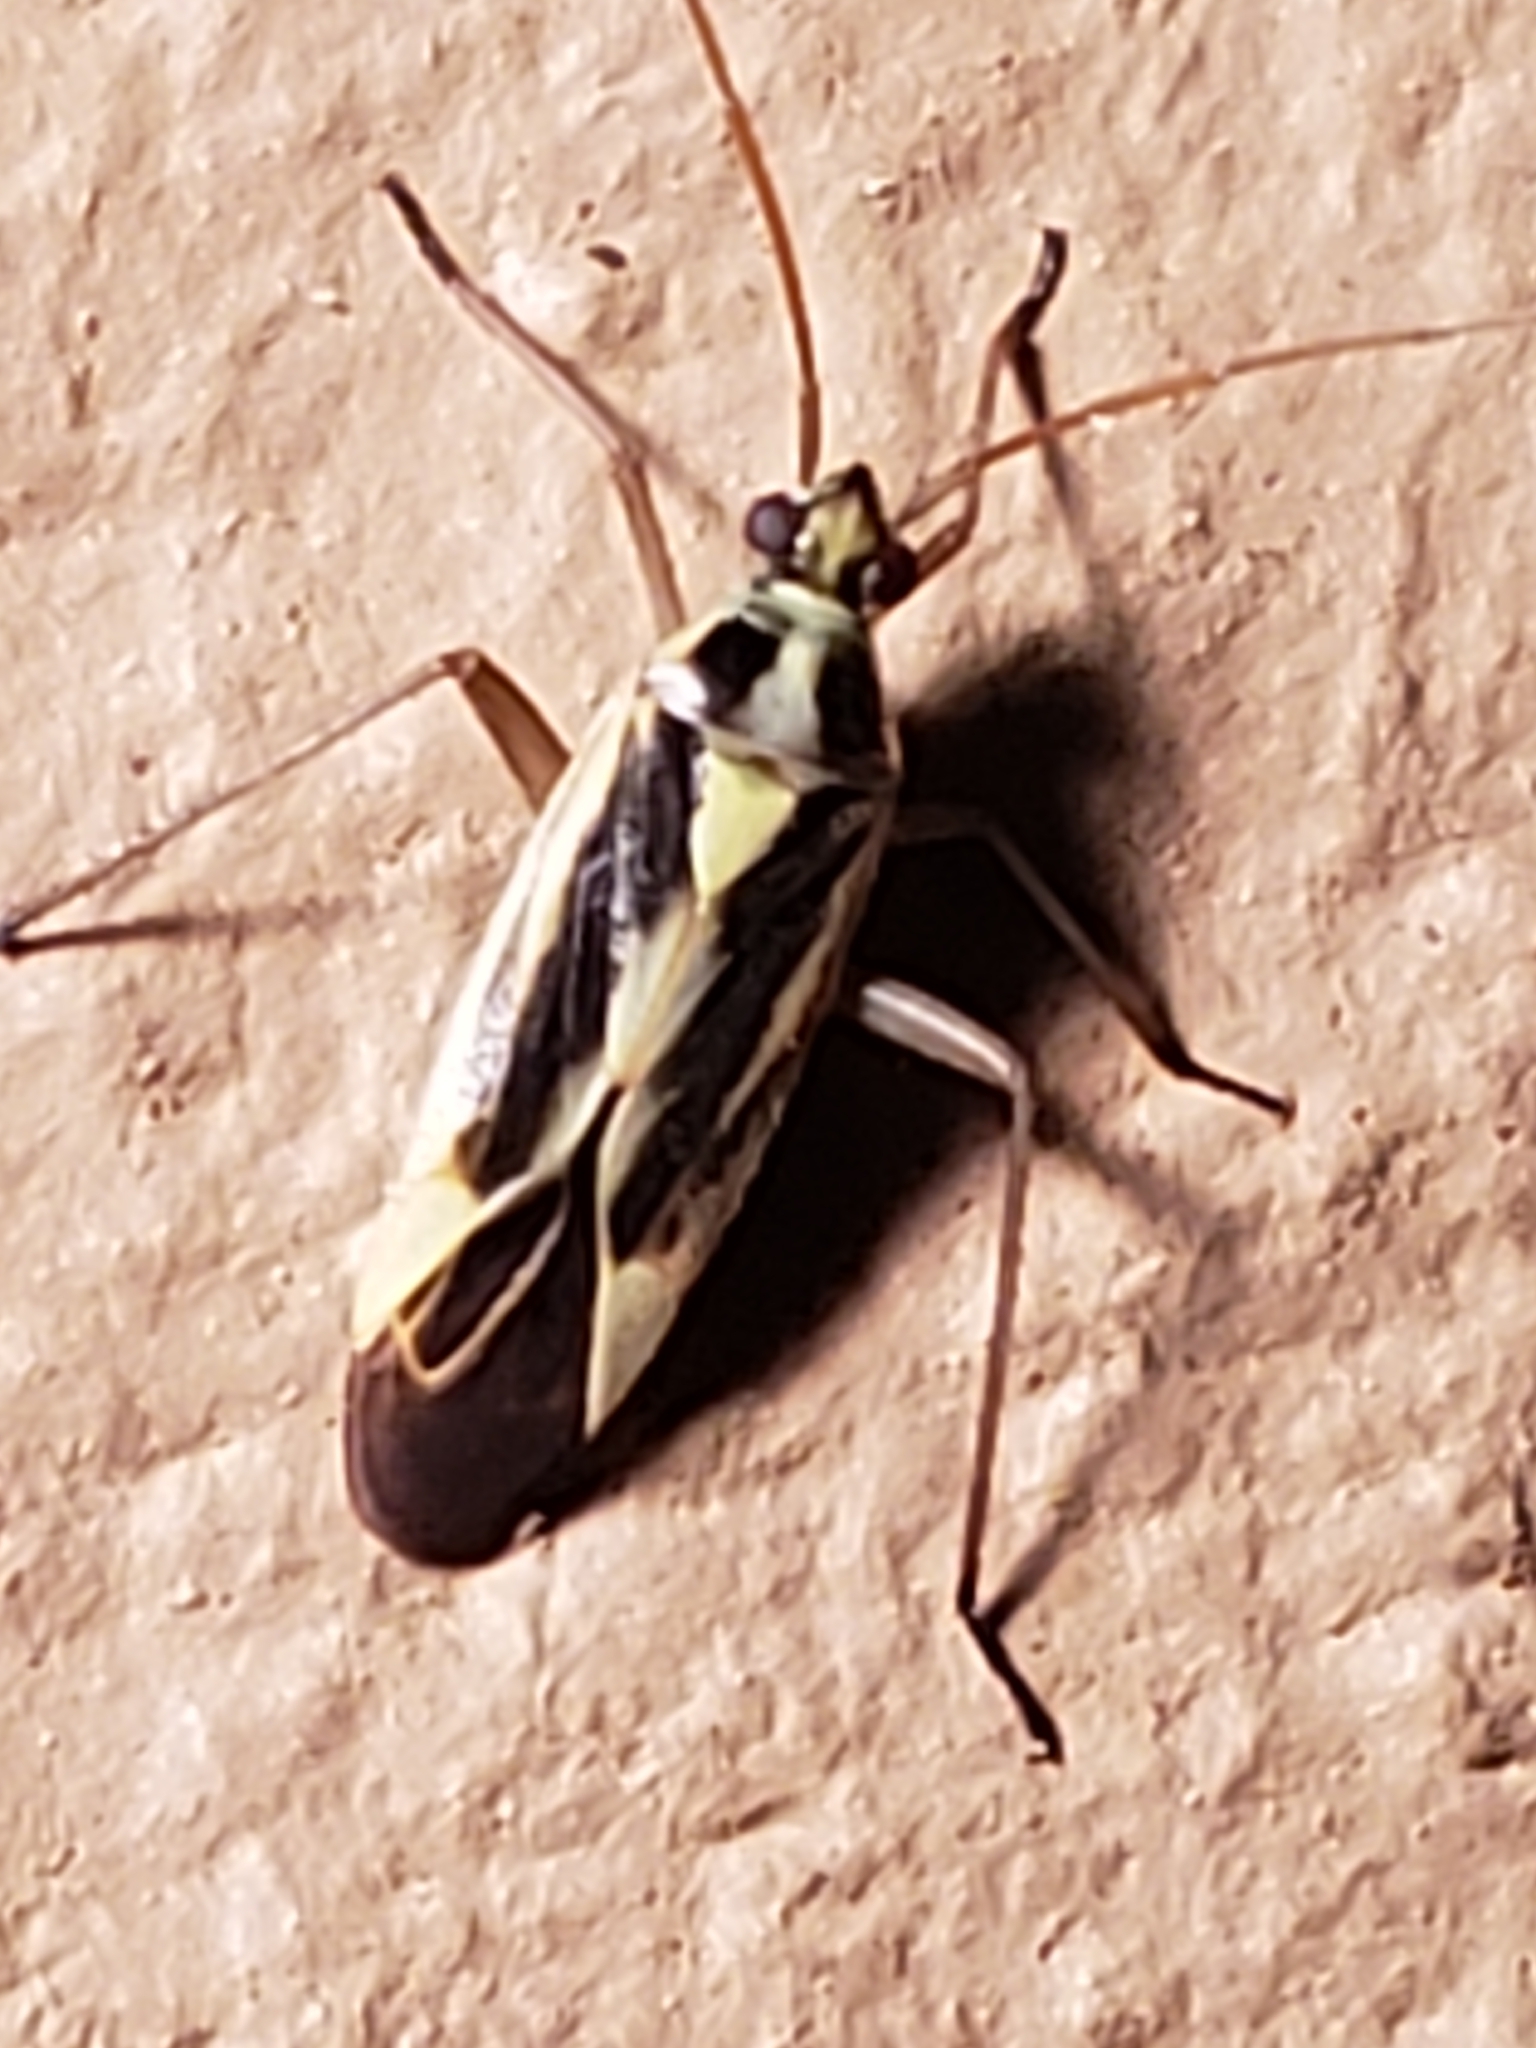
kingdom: Animalia
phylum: Arthropoda
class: Insecta
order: Hemiptera
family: Miridae
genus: Stenotus
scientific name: Stenotus binotatus
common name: Plant bug
